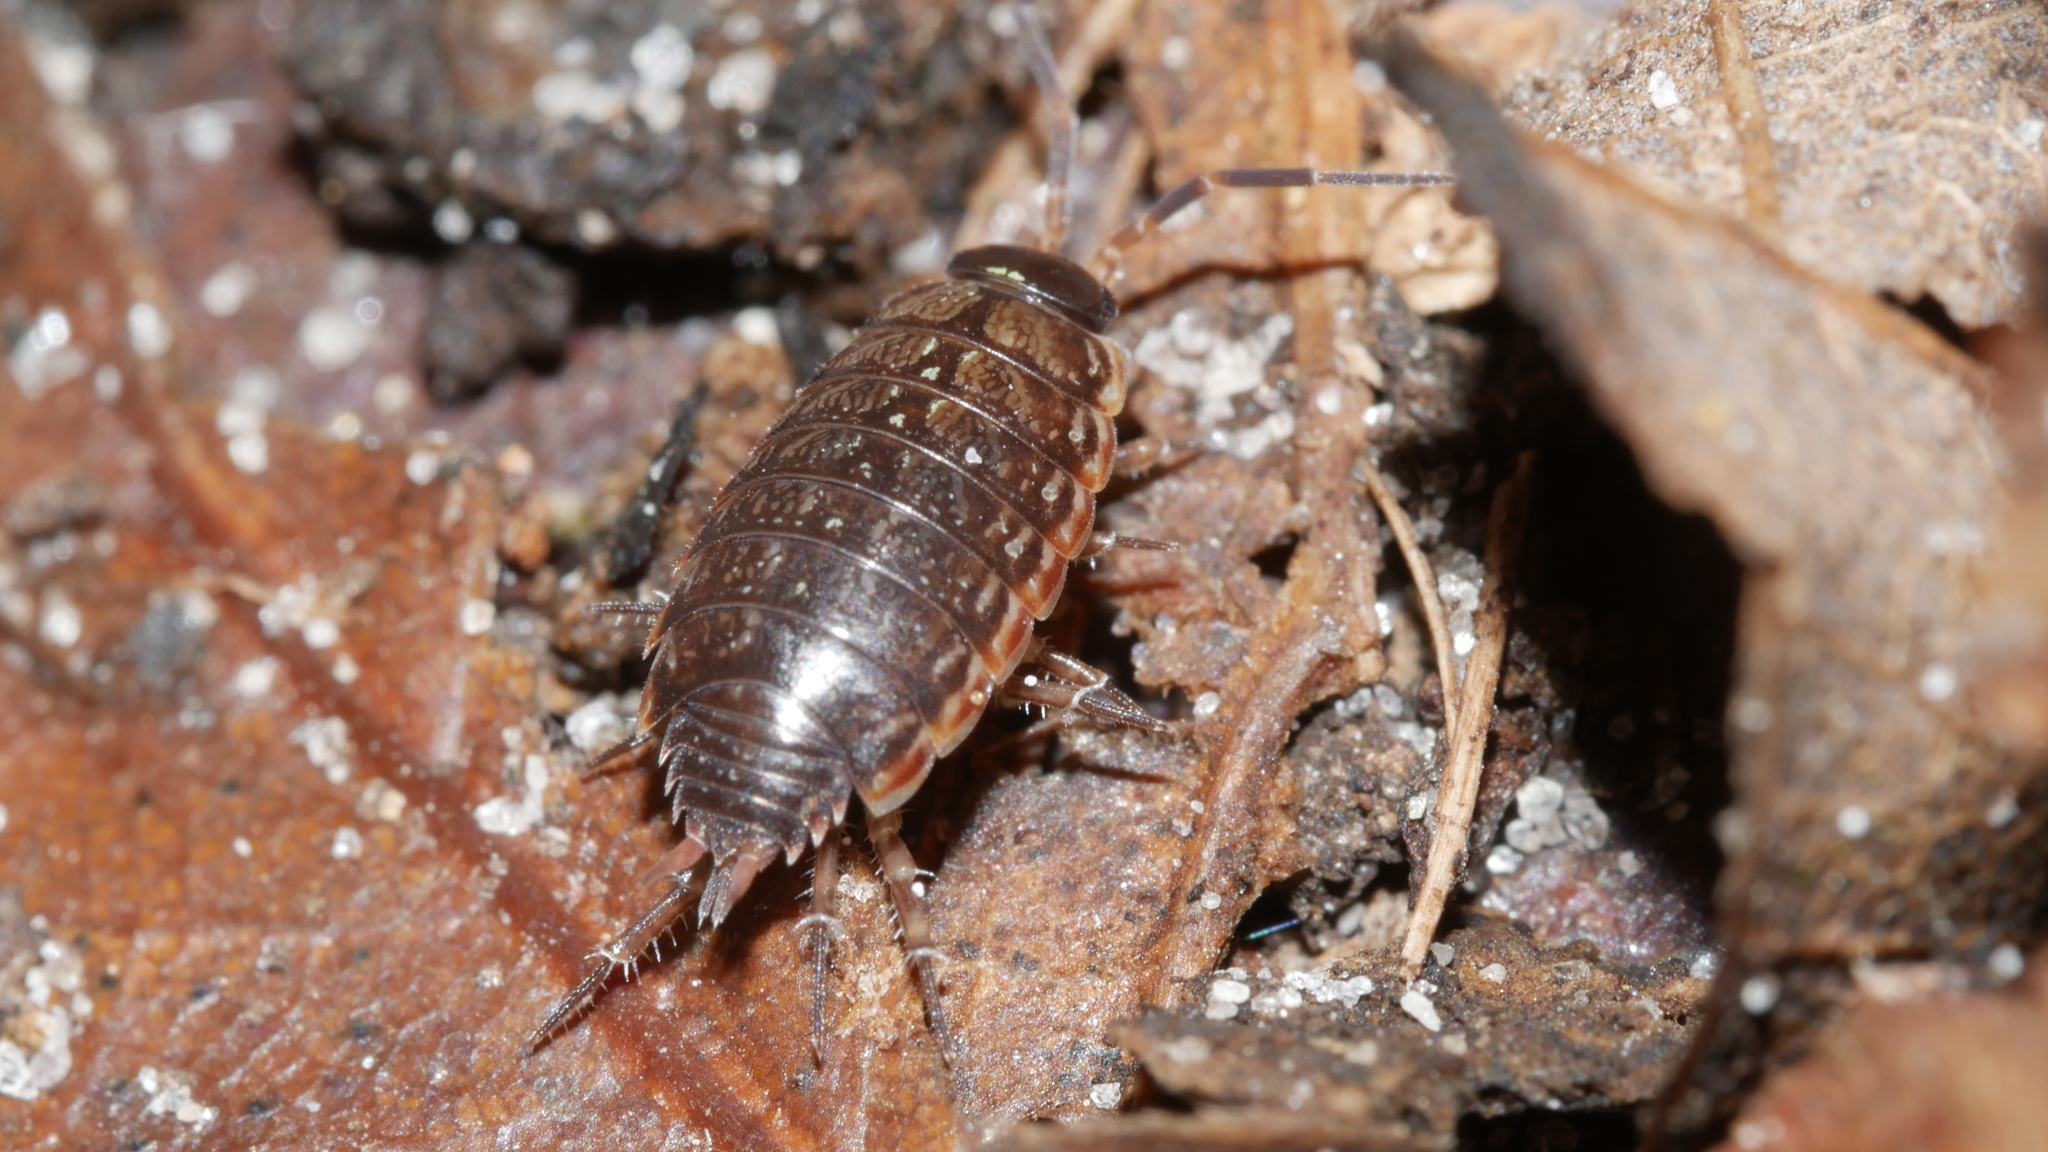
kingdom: Animalia
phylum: Arthropoda
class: Malacostraca
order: Isopoda
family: Philosciidae
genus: Philoscia
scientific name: Philoscia muscorum
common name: Common striped woodlouse
